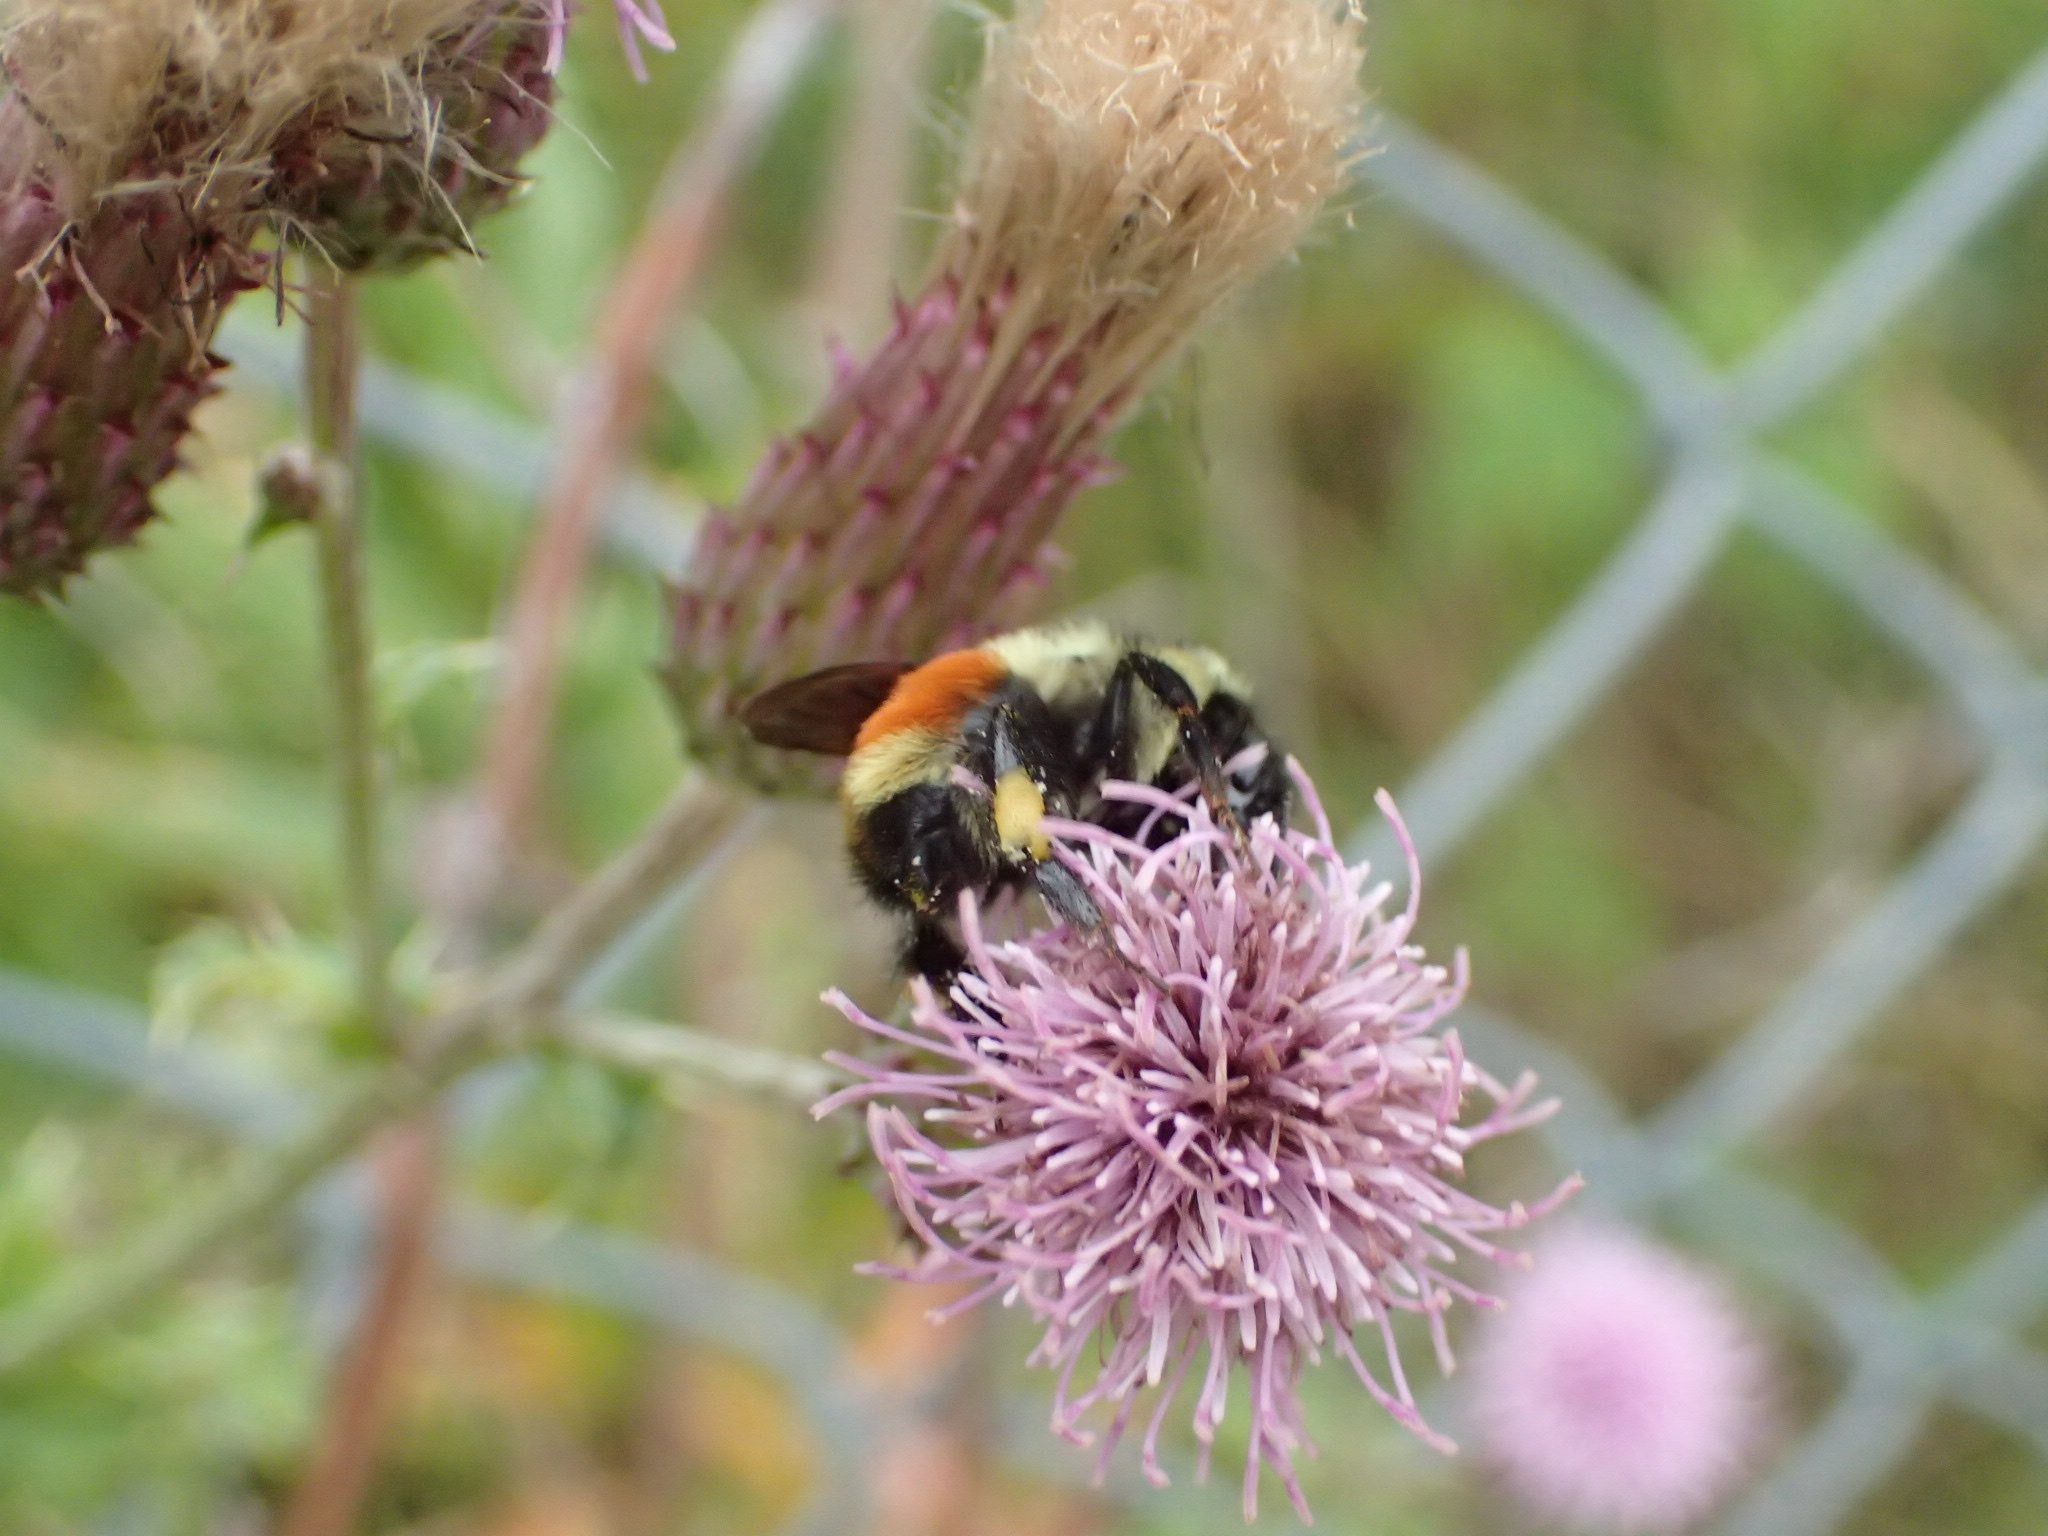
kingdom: Animalia
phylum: Arthropoda
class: Insecta
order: Hymenoptera
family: Apidae
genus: Bombus
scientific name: Bombus ternarius
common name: Tri-colored bumble bee
